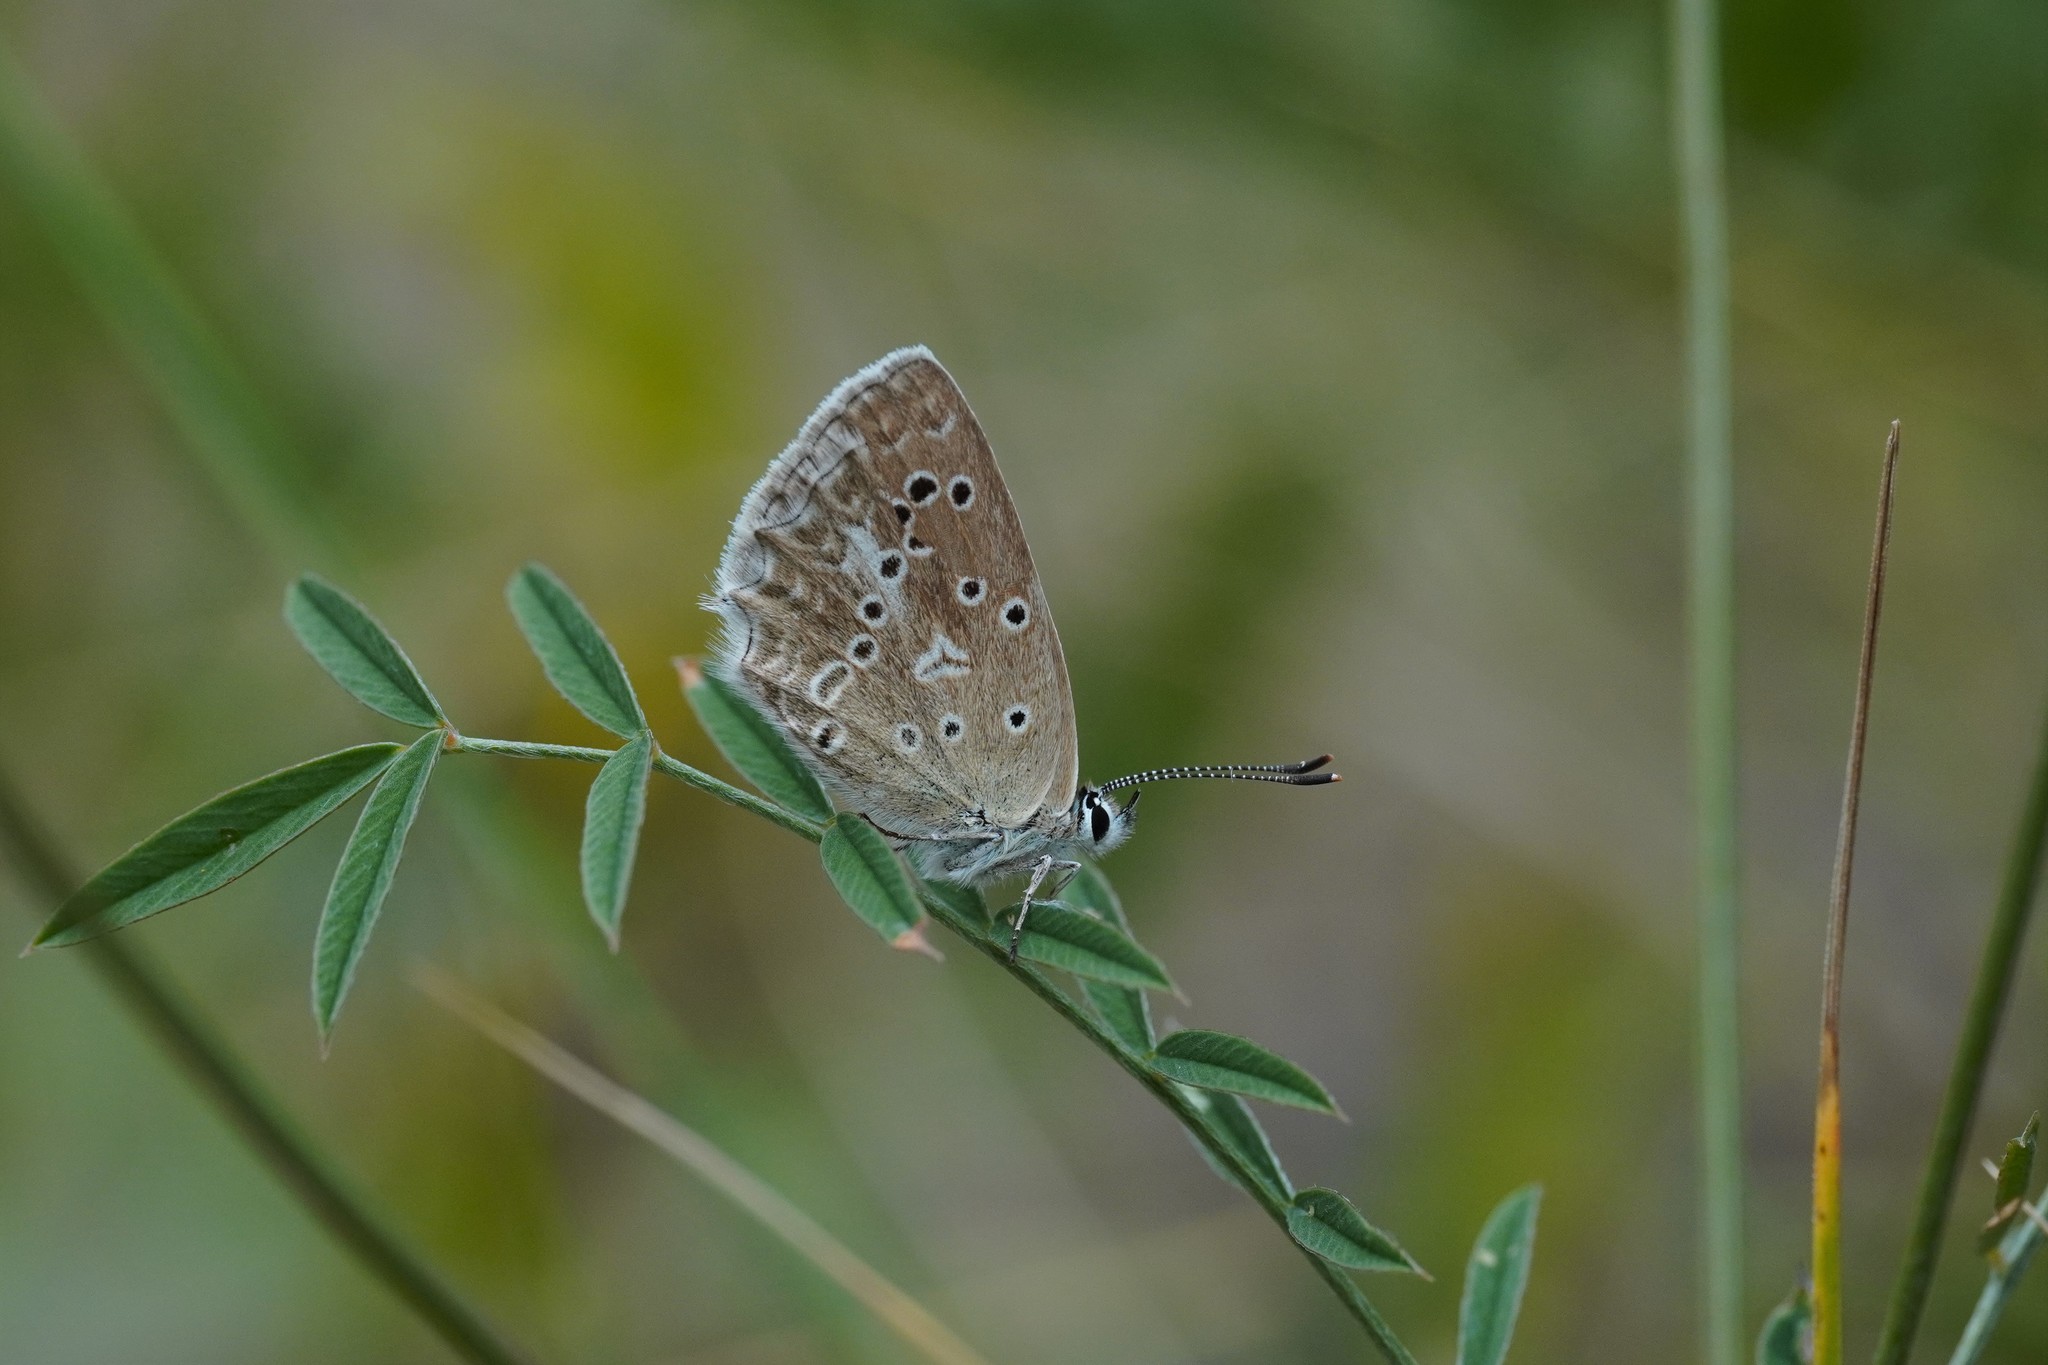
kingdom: Animalia
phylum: Arthropoda
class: Insecta
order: Lepidoptera
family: Lycaenidae
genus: Polyommatus
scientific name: Polyommatus daphnis
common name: Meleager's blue
